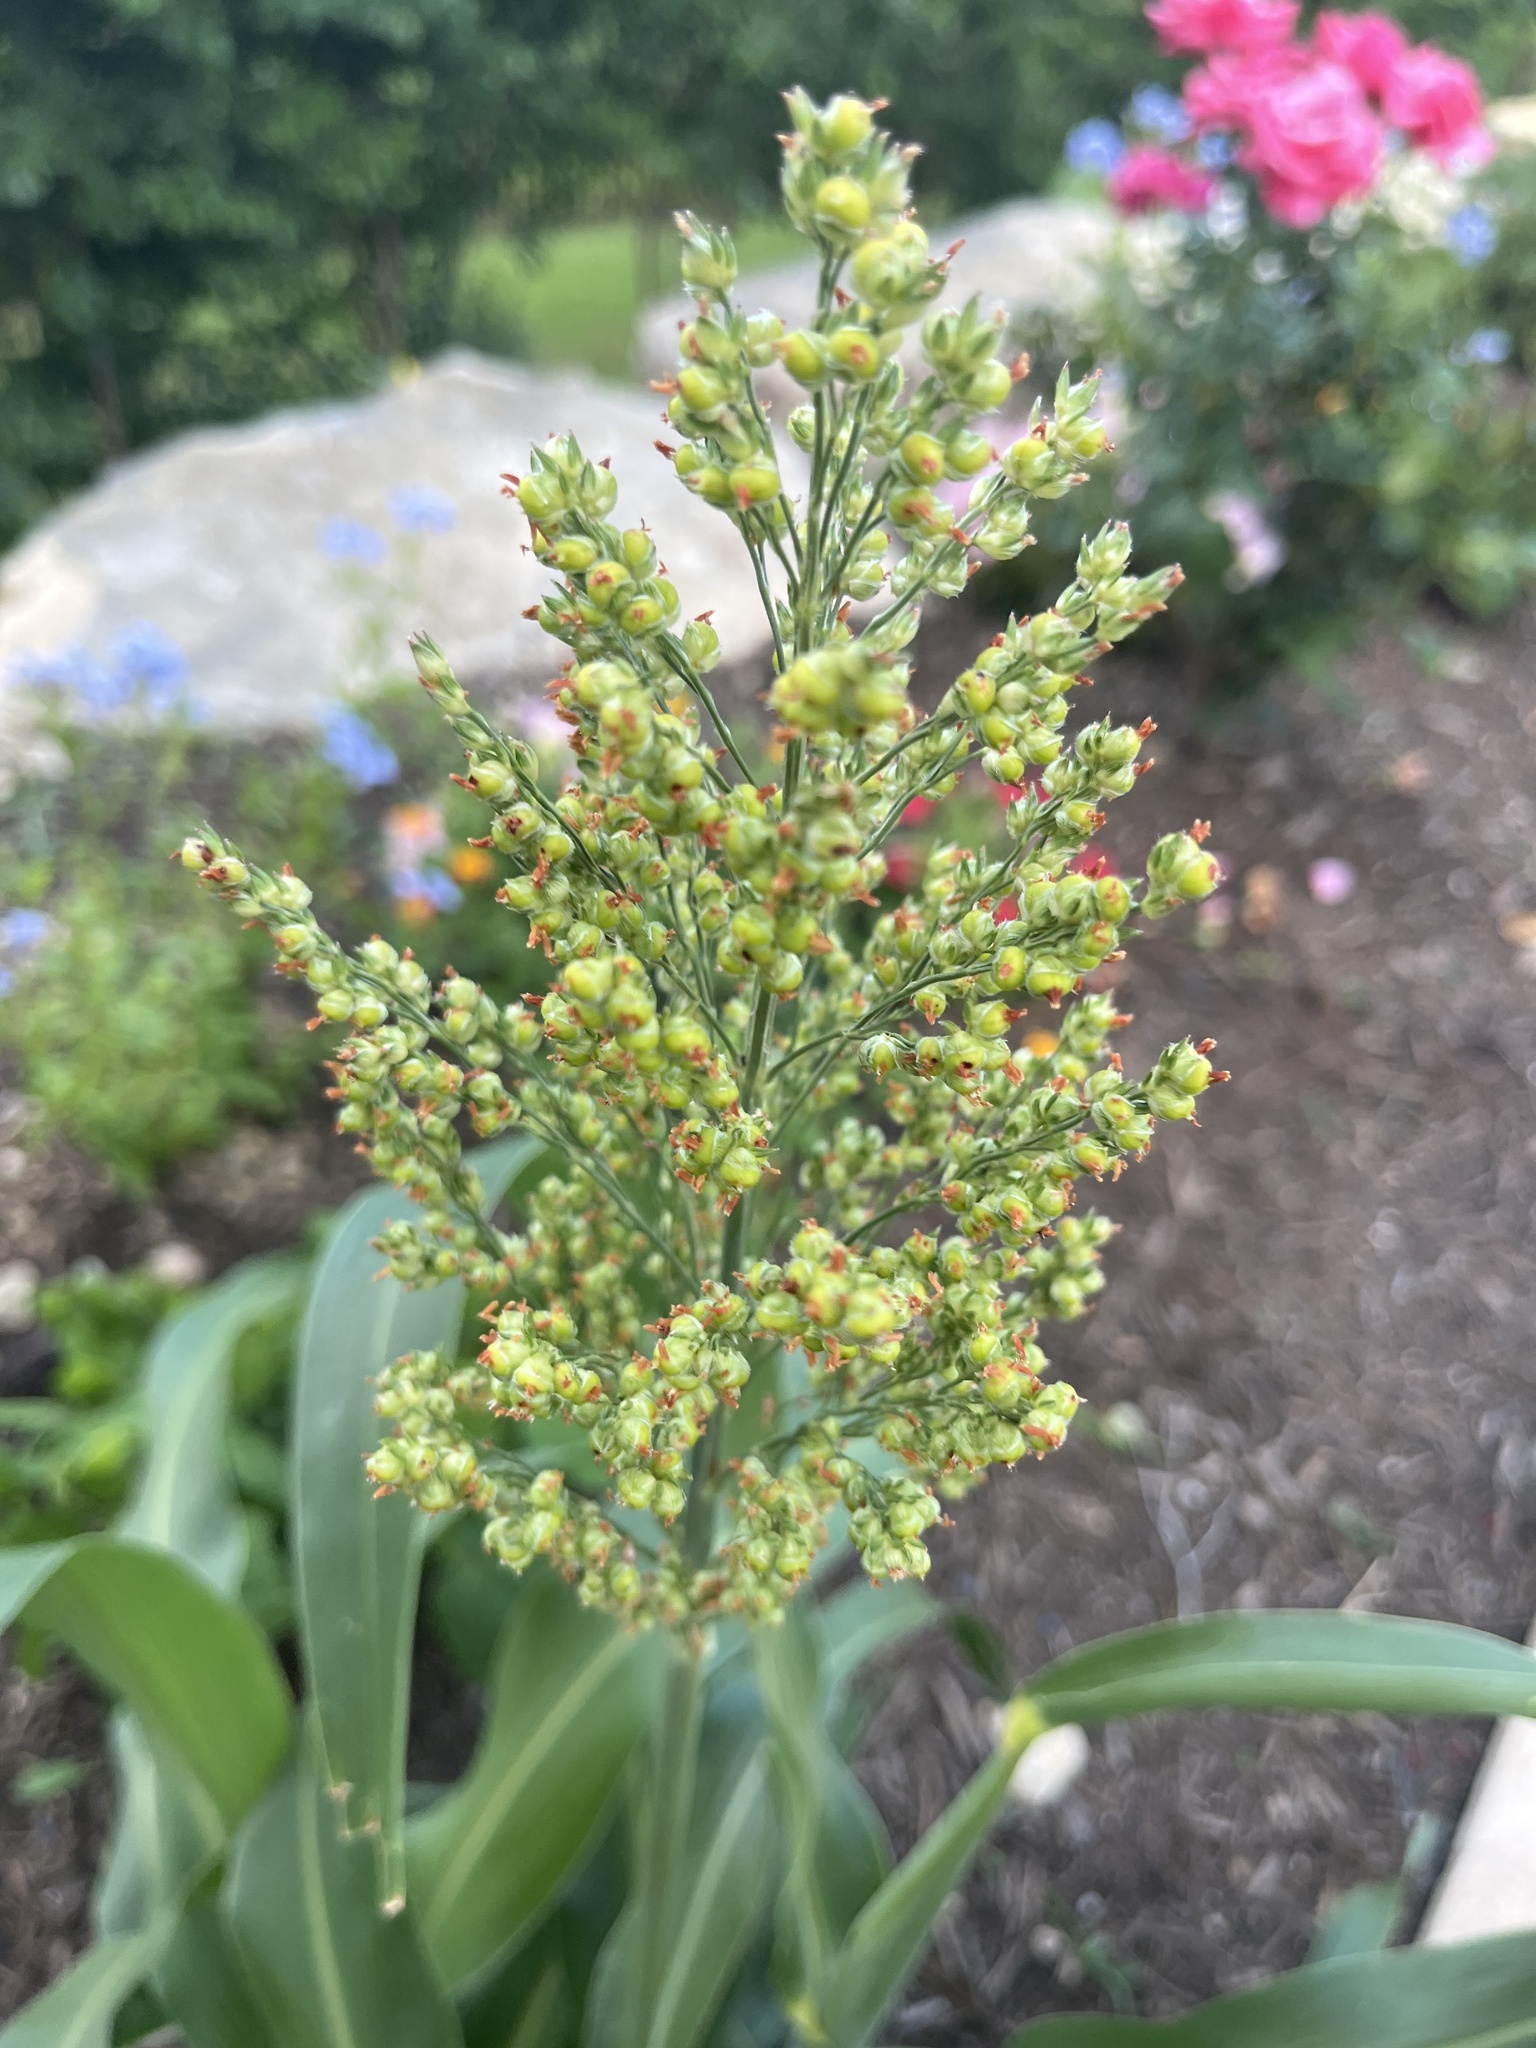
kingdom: Plantae
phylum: Tracheophyta
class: Liliopsida
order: Poales
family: Poaceae
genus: Sorghum
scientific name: Sorghum bicolor
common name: Sorghum
